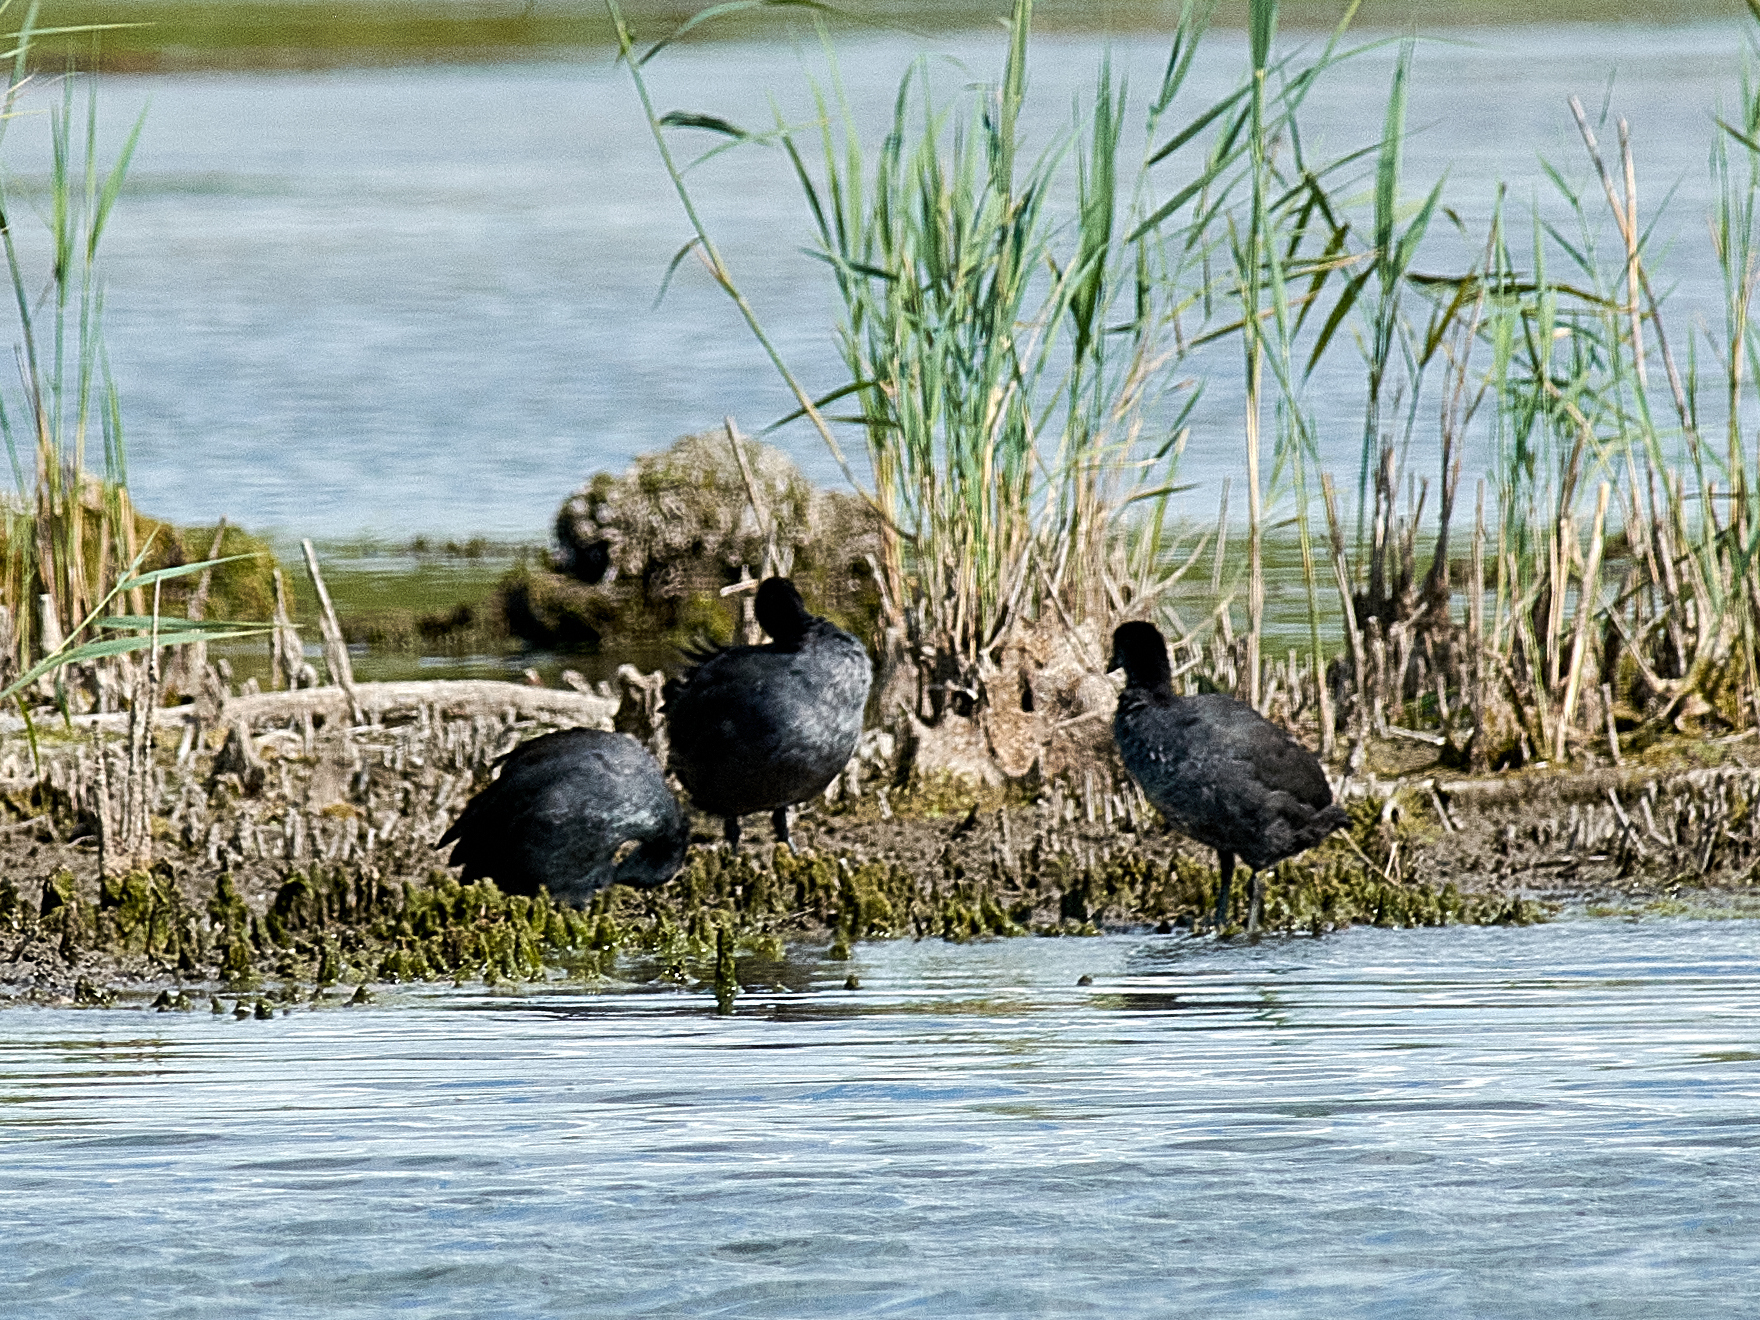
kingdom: Animalia
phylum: Chordata
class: Aves
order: Gruiformes
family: Rallidae
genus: Fulica
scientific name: Fulica atra
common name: Eurasian coot
